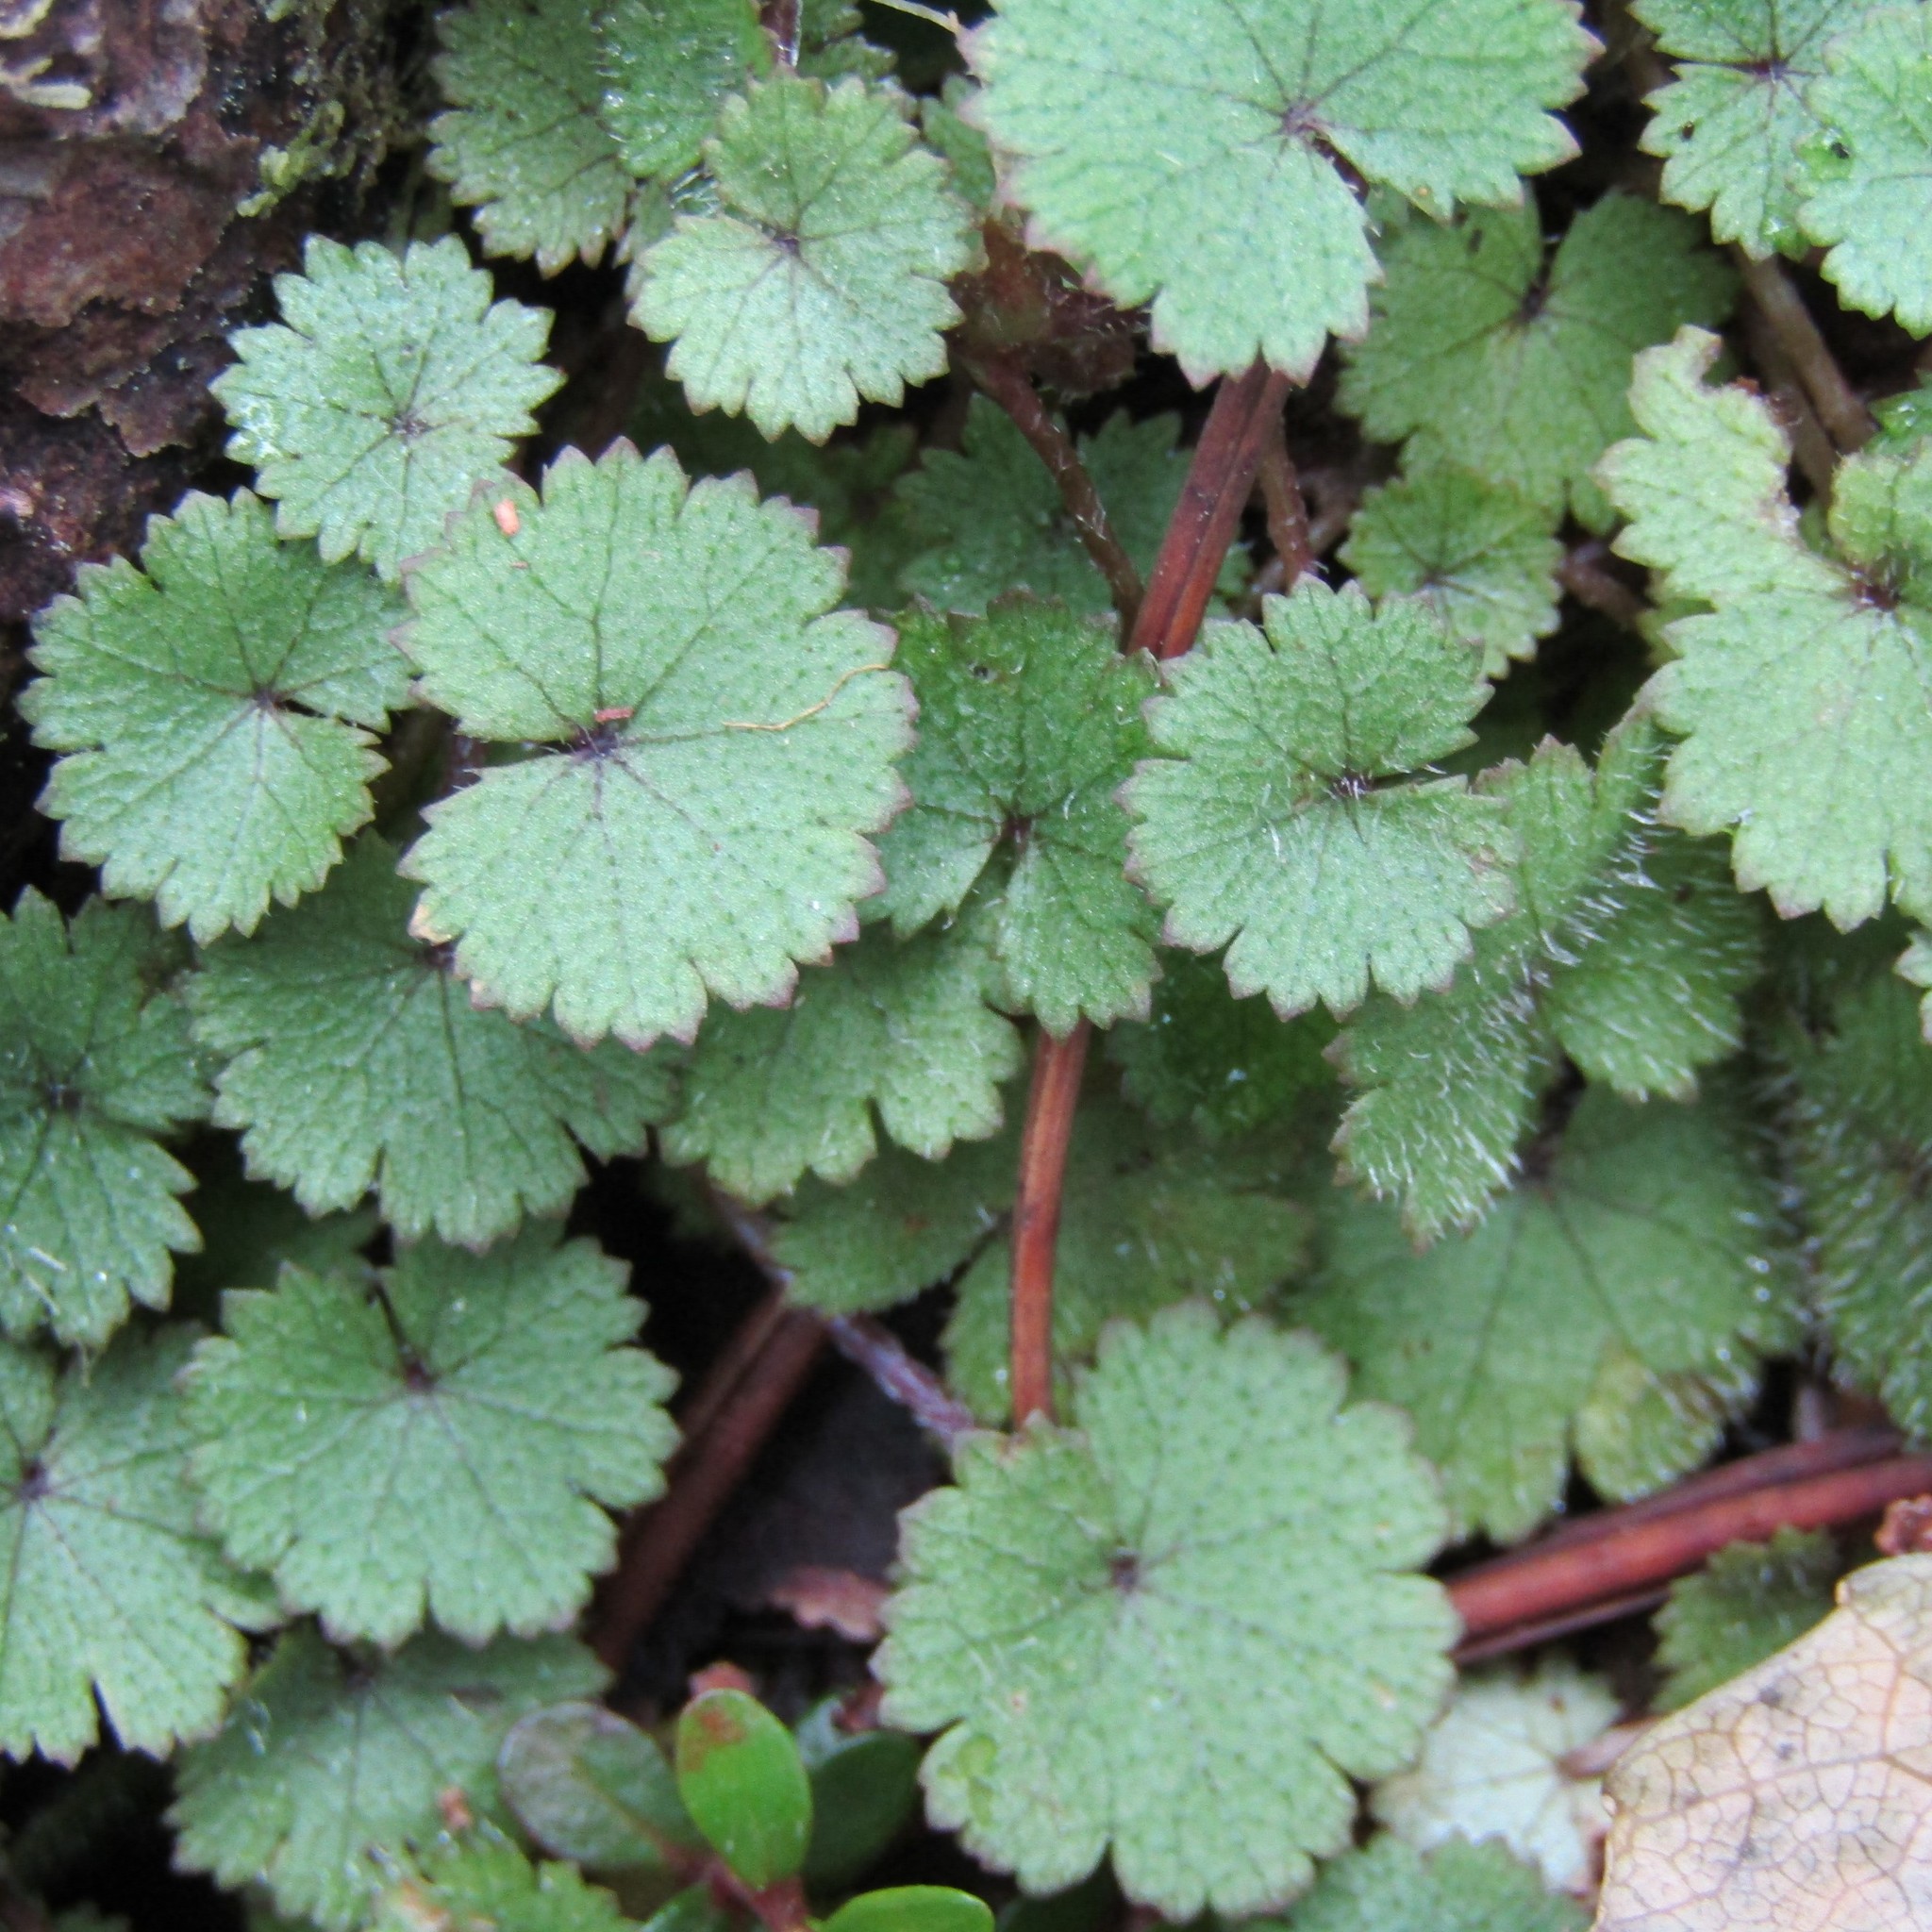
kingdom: Plantae
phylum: Tracheophyta
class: Magnoliopsida
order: Apiales
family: Araliaceae
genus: Hydrocotyle
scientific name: Hydrocotyle moschata
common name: Hairy pennywort
